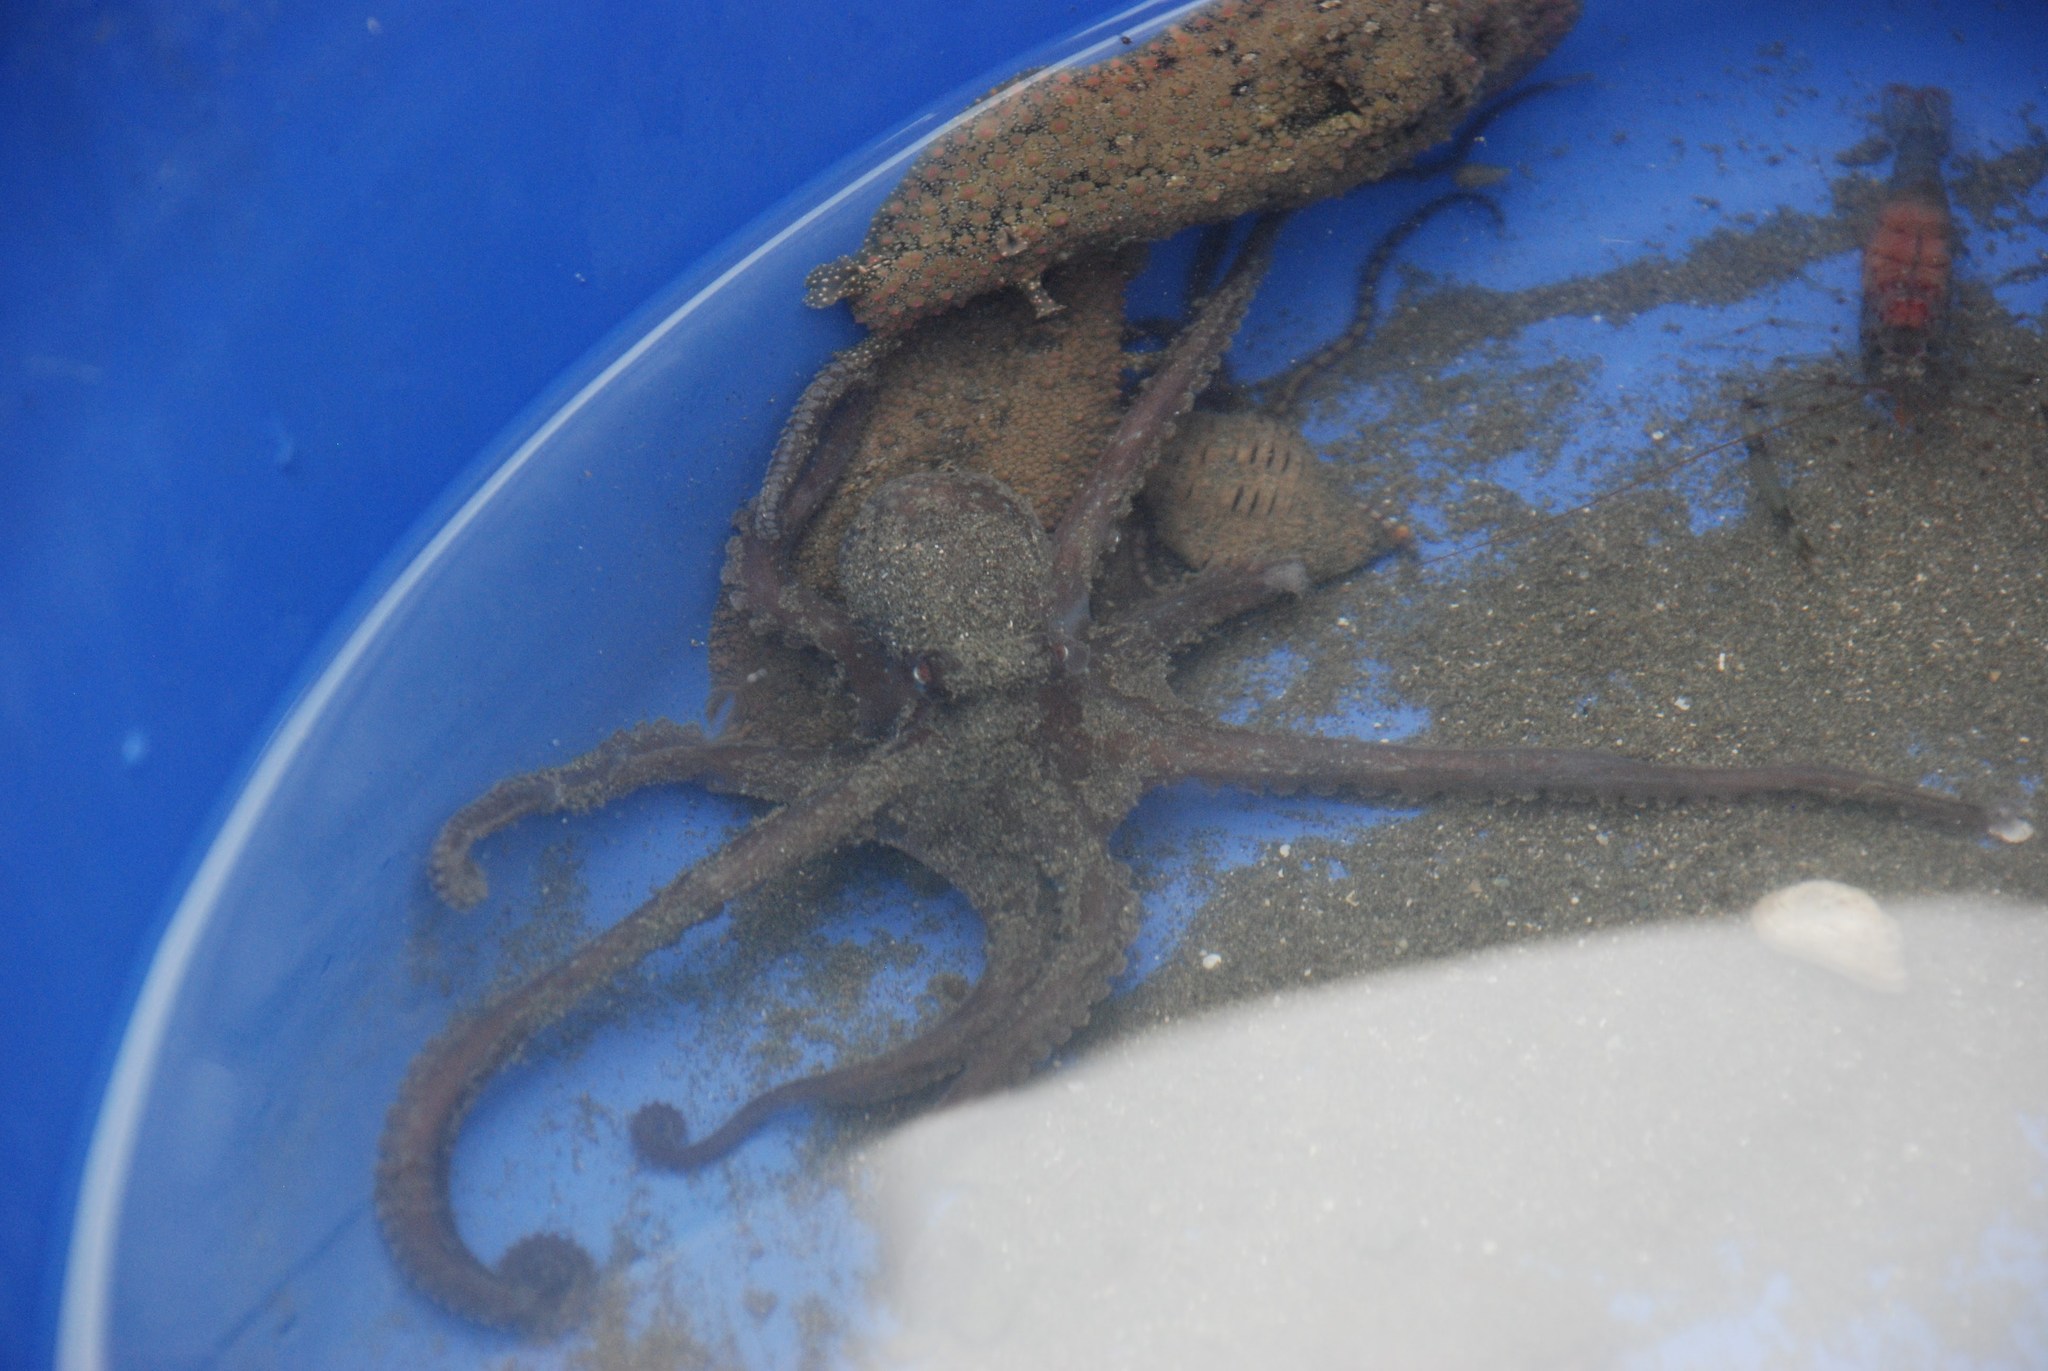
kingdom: Animalia
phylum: Mollusca
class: Cephalopoda
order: Octopoda
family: Octopodidae
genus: Octopus
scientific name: Octopus rubescens
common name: East pacific red octopus
